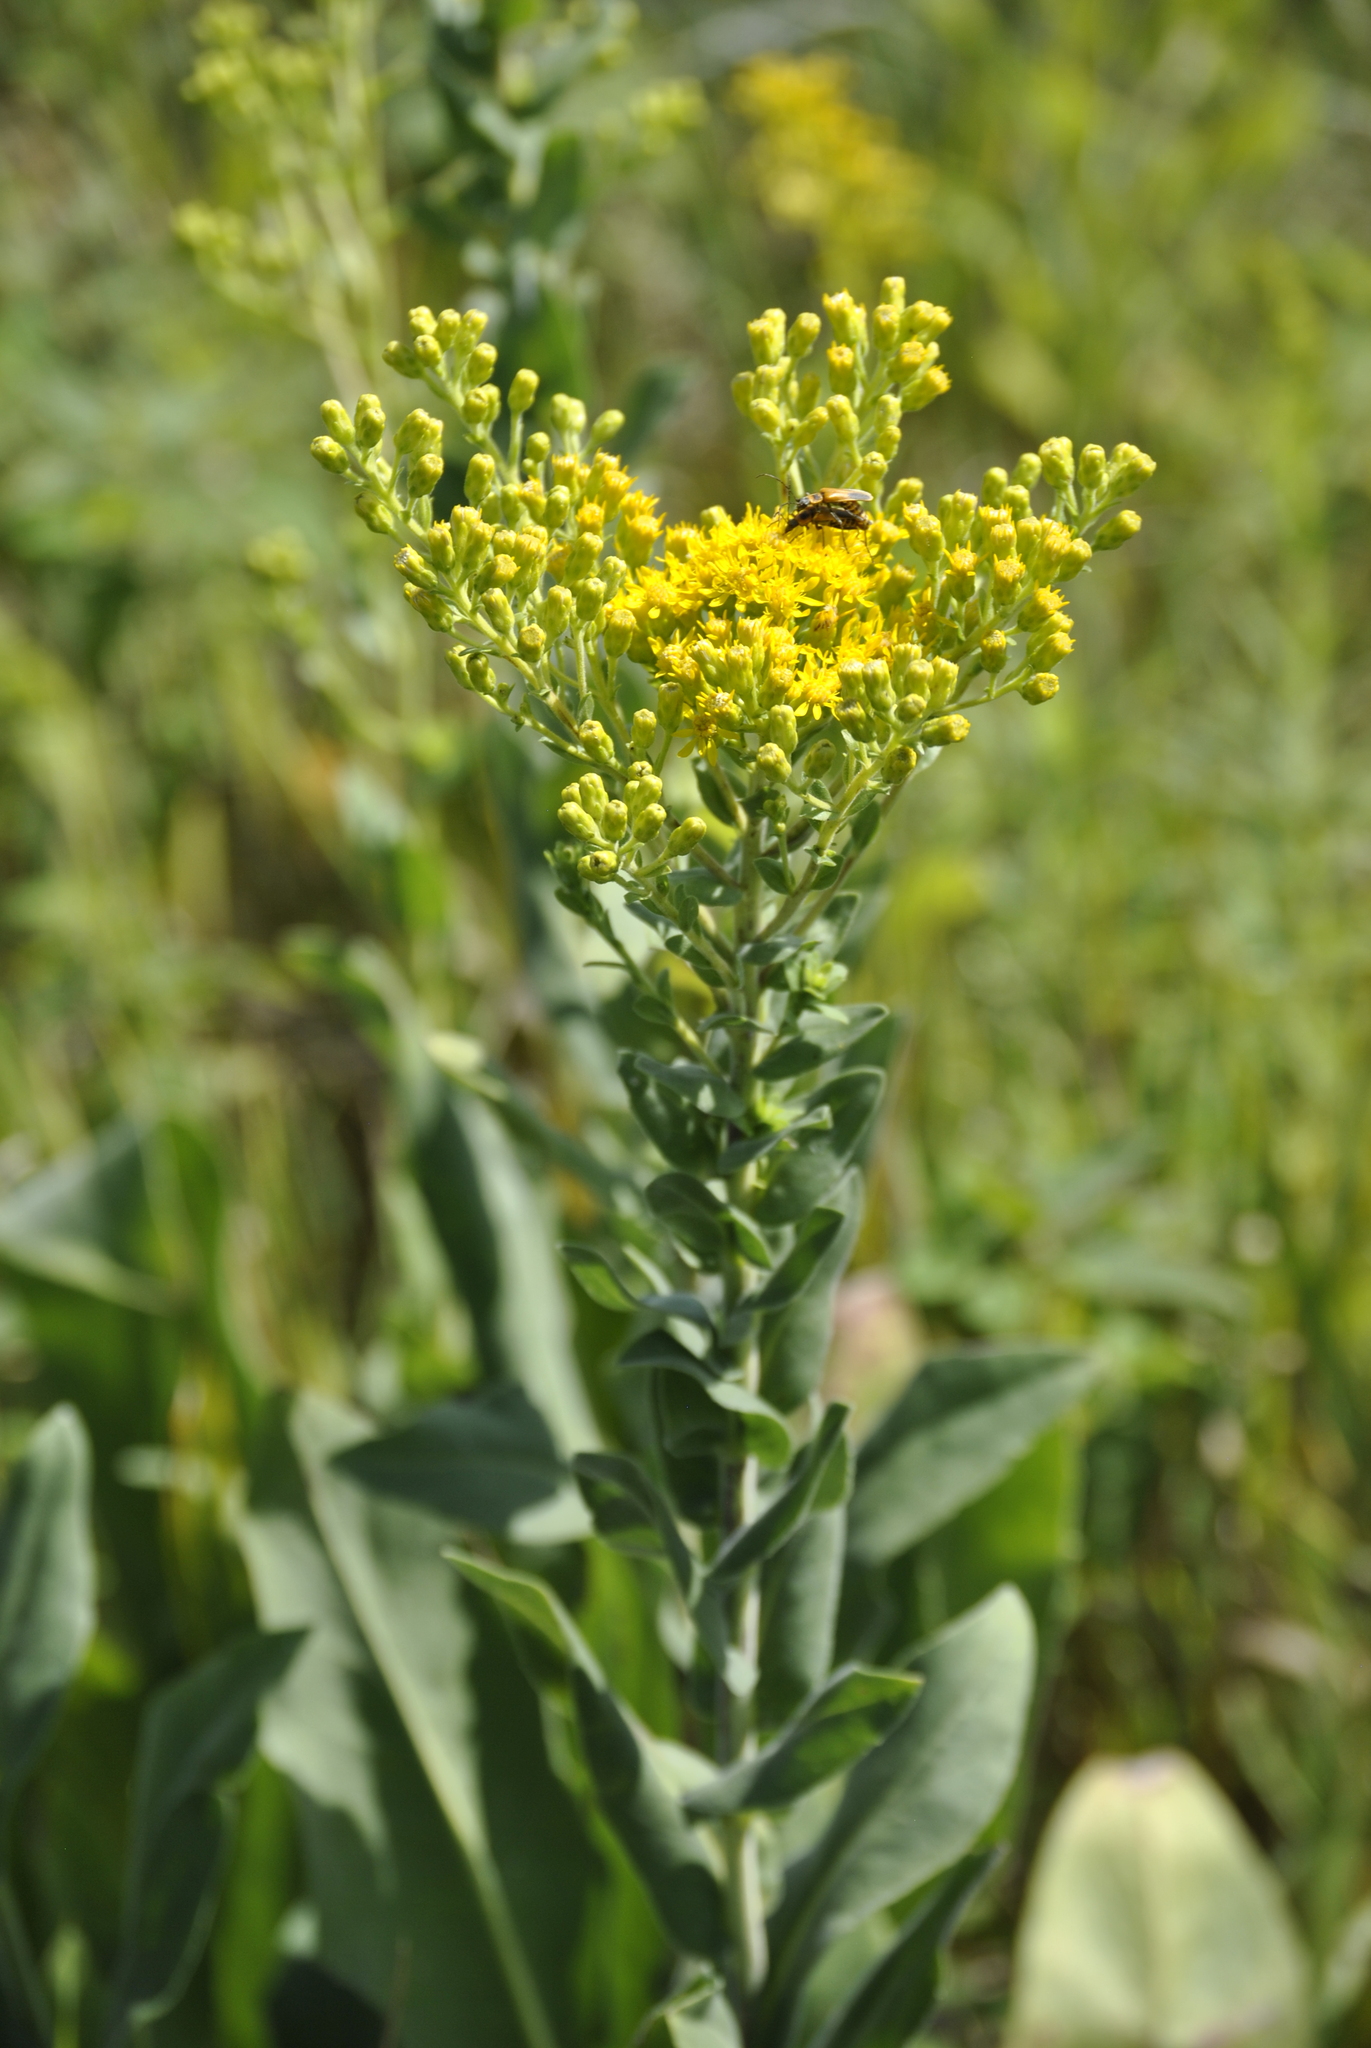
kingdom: Plantae
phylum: Tracheophyta
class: Magnoliopsida
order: Asterales
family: Asteraceae
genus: Solidago
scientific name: Solidago rigida
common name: Rigid goldenrod
